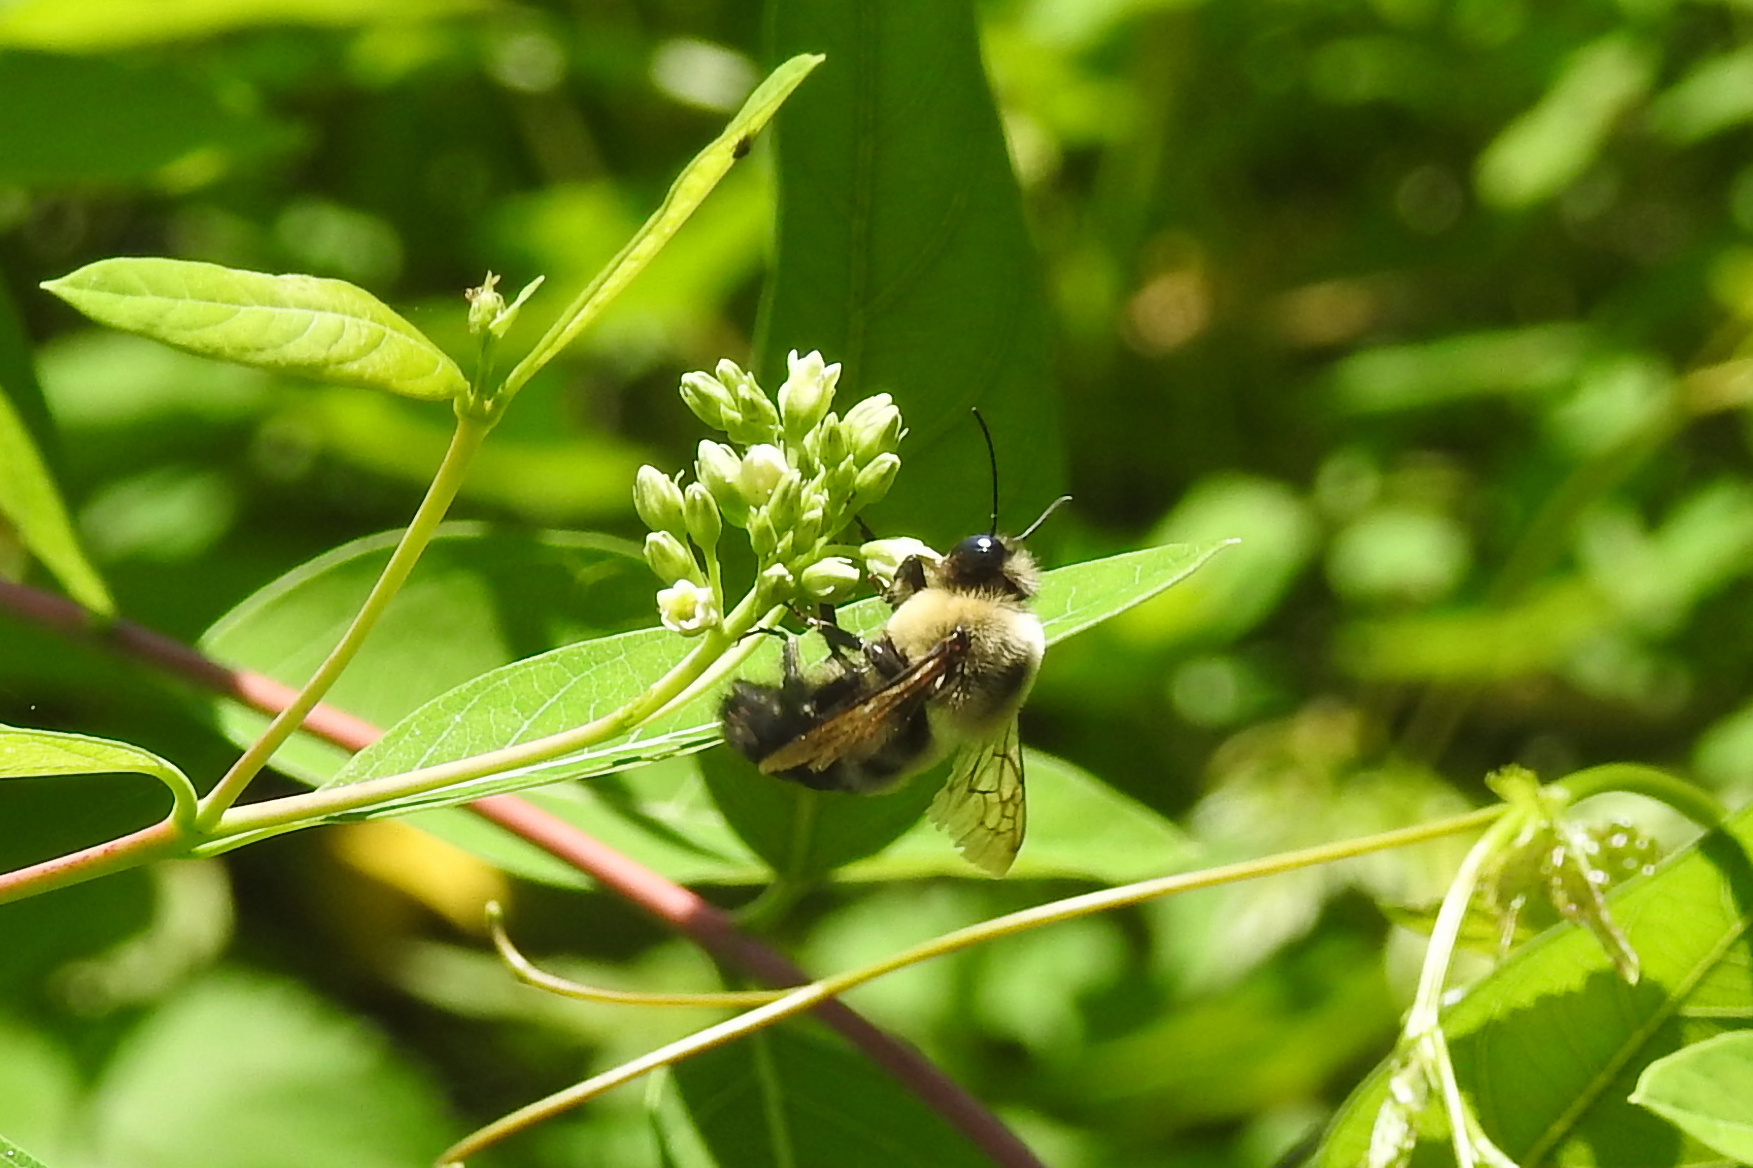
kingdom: Animalia
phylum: Arthropoda
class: Insecta
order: Hymenoptera
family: Apidae
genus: Bombus
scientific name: Bombus griseocollis
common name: Brown-belted bumble bee
